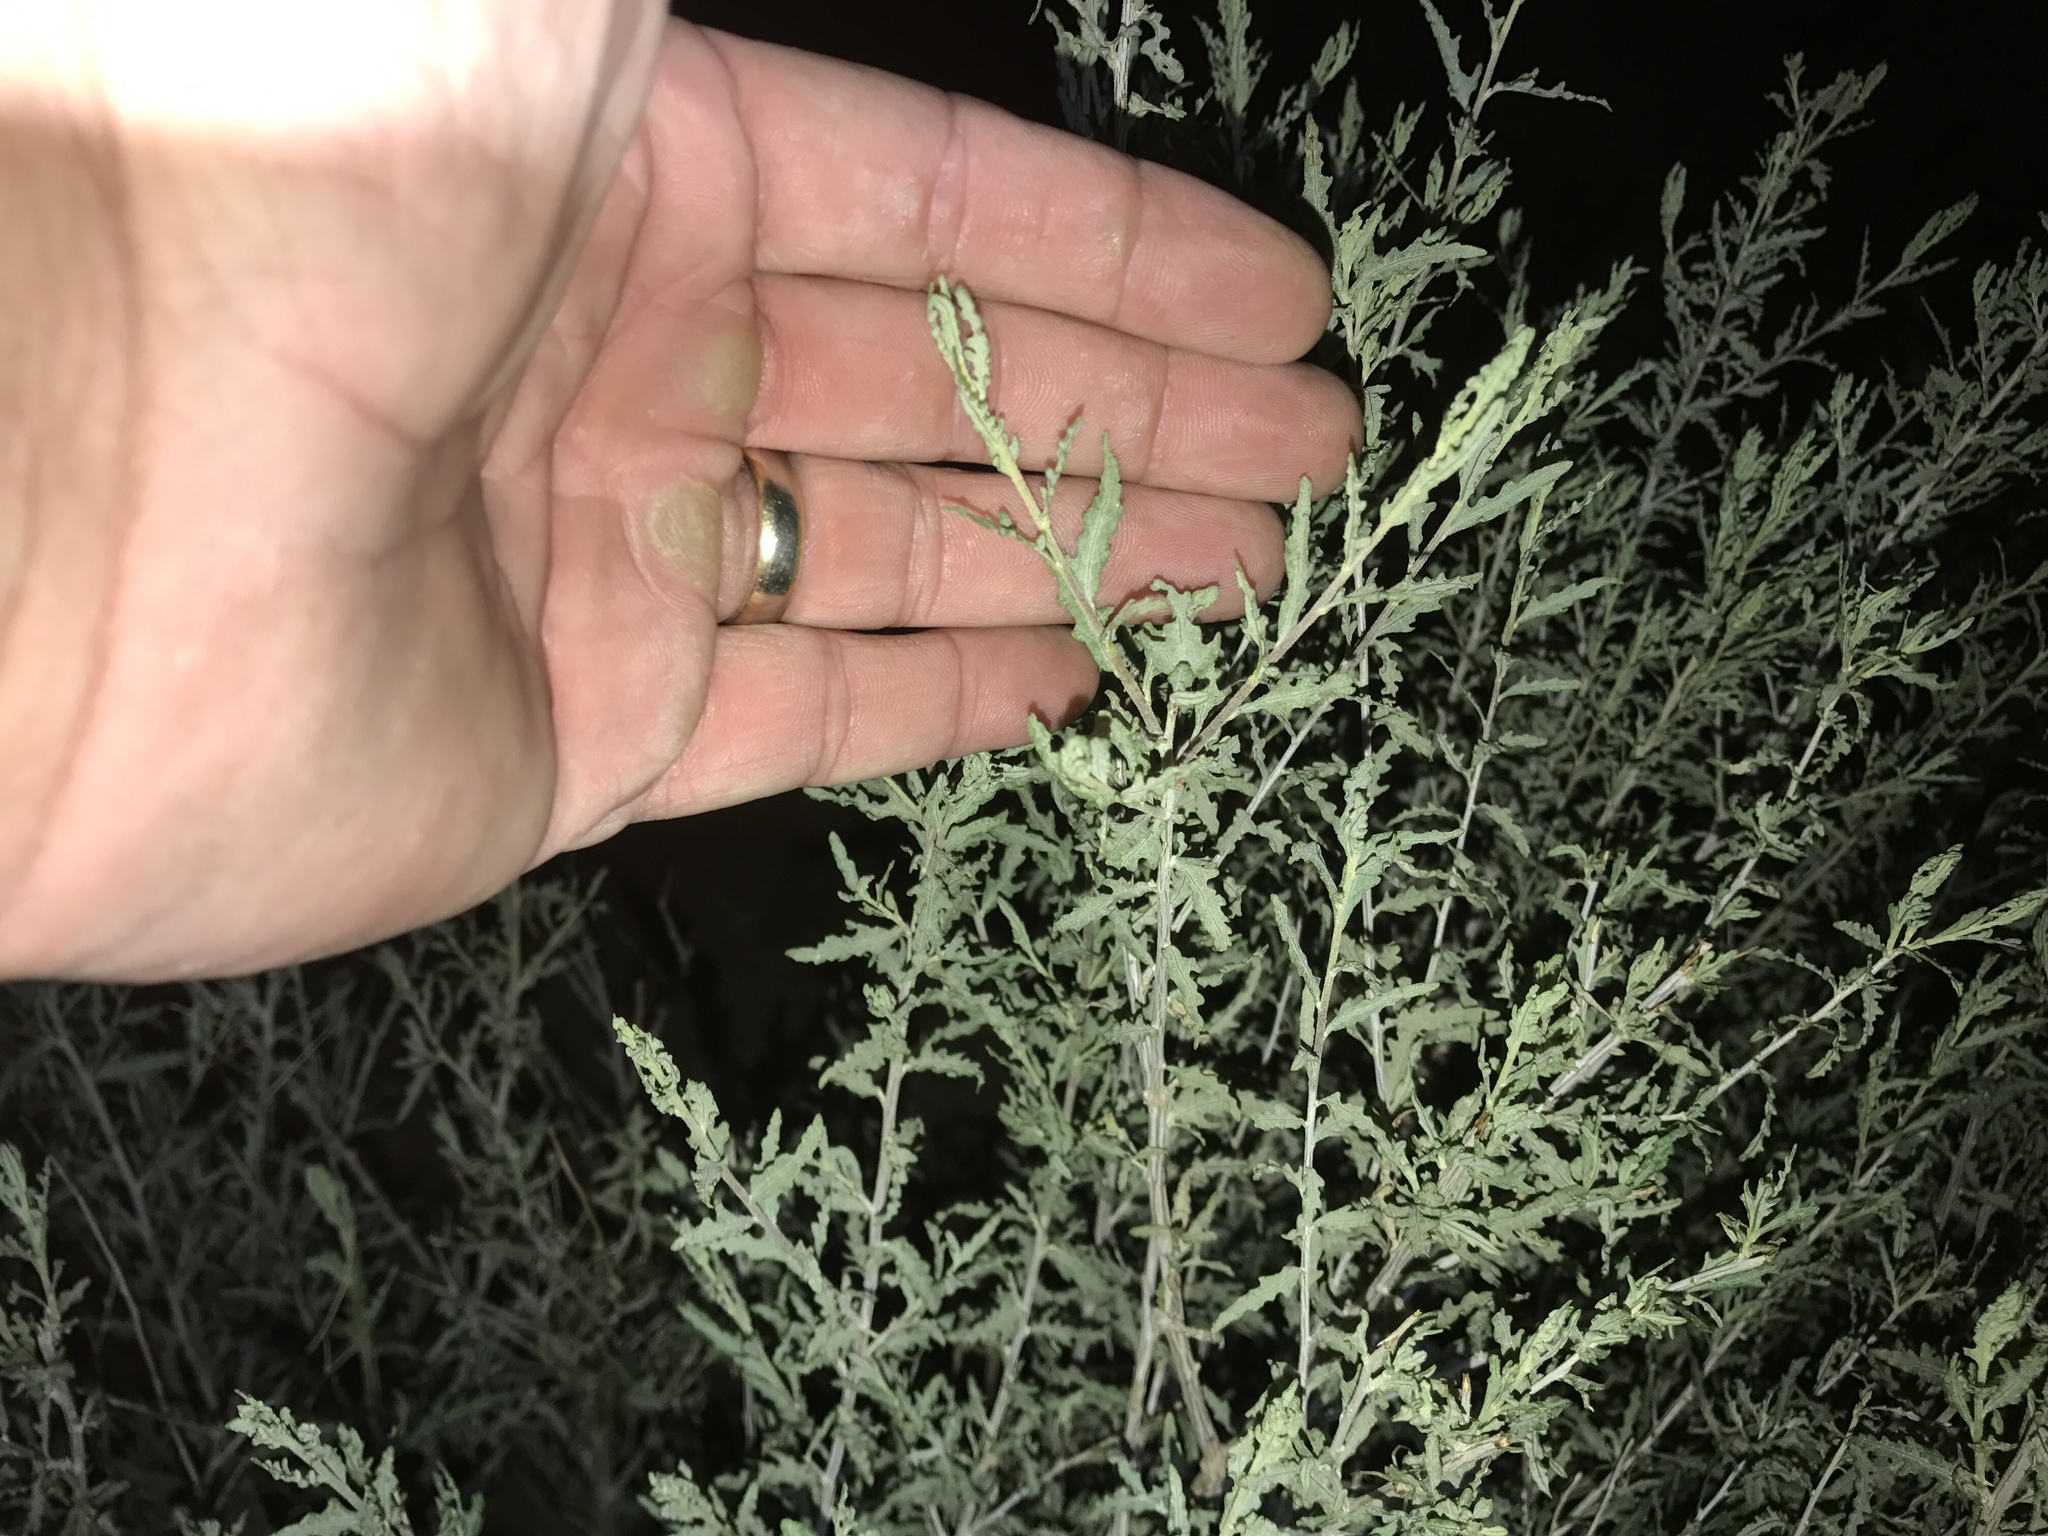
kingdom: Plantae
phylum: Tracheophyta
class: Magnoliopsida
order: Asterales
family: Asteraceae
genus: Ambrosia
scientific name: Ambrosia eriocentra
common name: Woolly bur-sage
